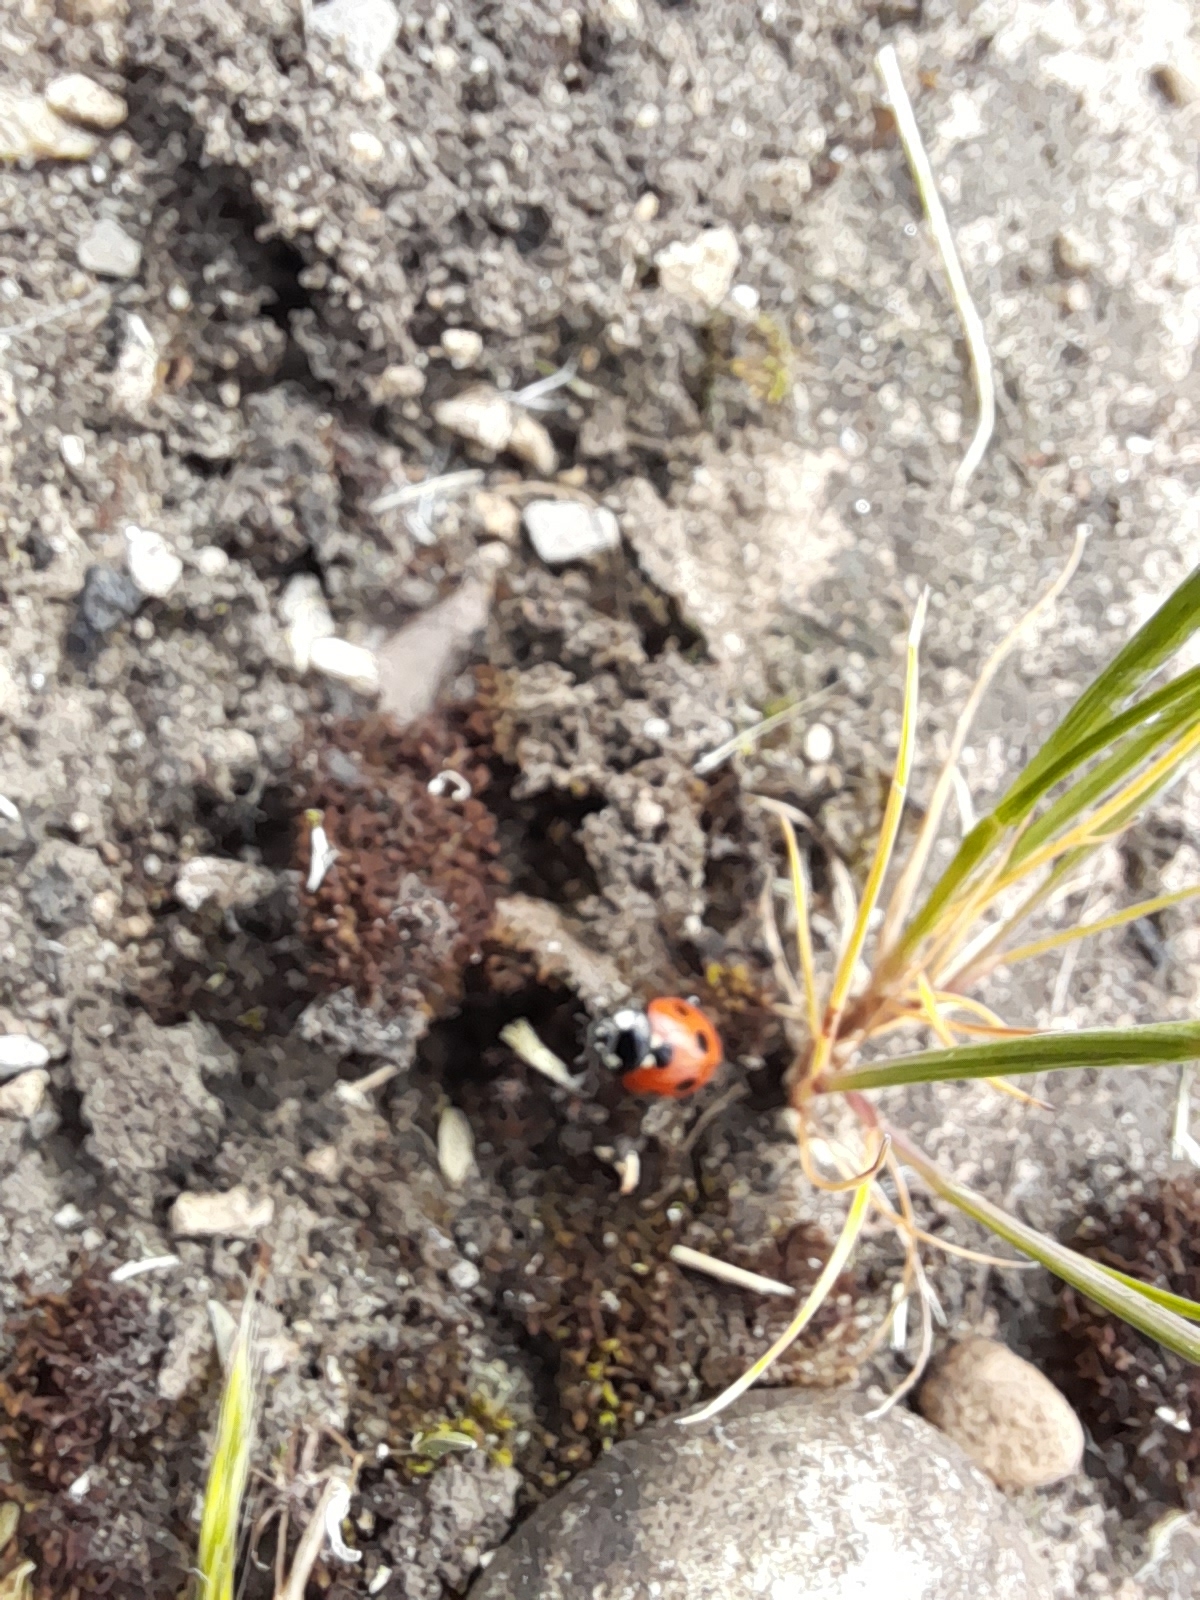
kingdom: Animalia
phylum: Arthropoda
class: Insecta
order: Coleoptera
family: Coccinellidae
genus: Coccinella
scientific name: Coccinella septempunctata
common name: Sevenspotted lady beetle
